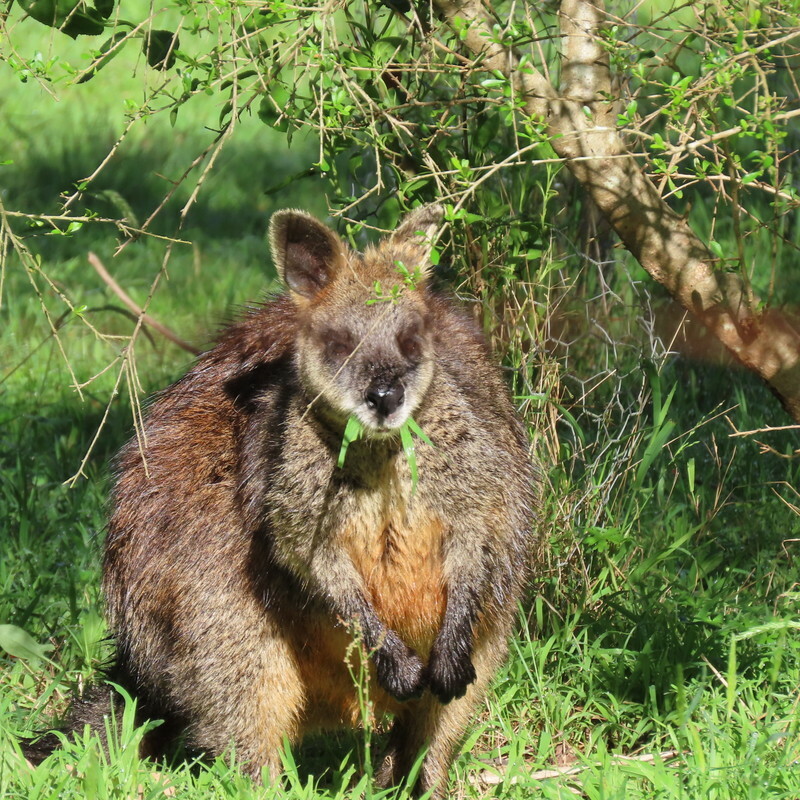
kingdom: Animalia
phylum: Chordata
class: Mammalia
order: Diprotodontia
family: Macropodidae
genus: Wallabia
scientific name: Wallabia bicolor
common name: Swamp wallaby
